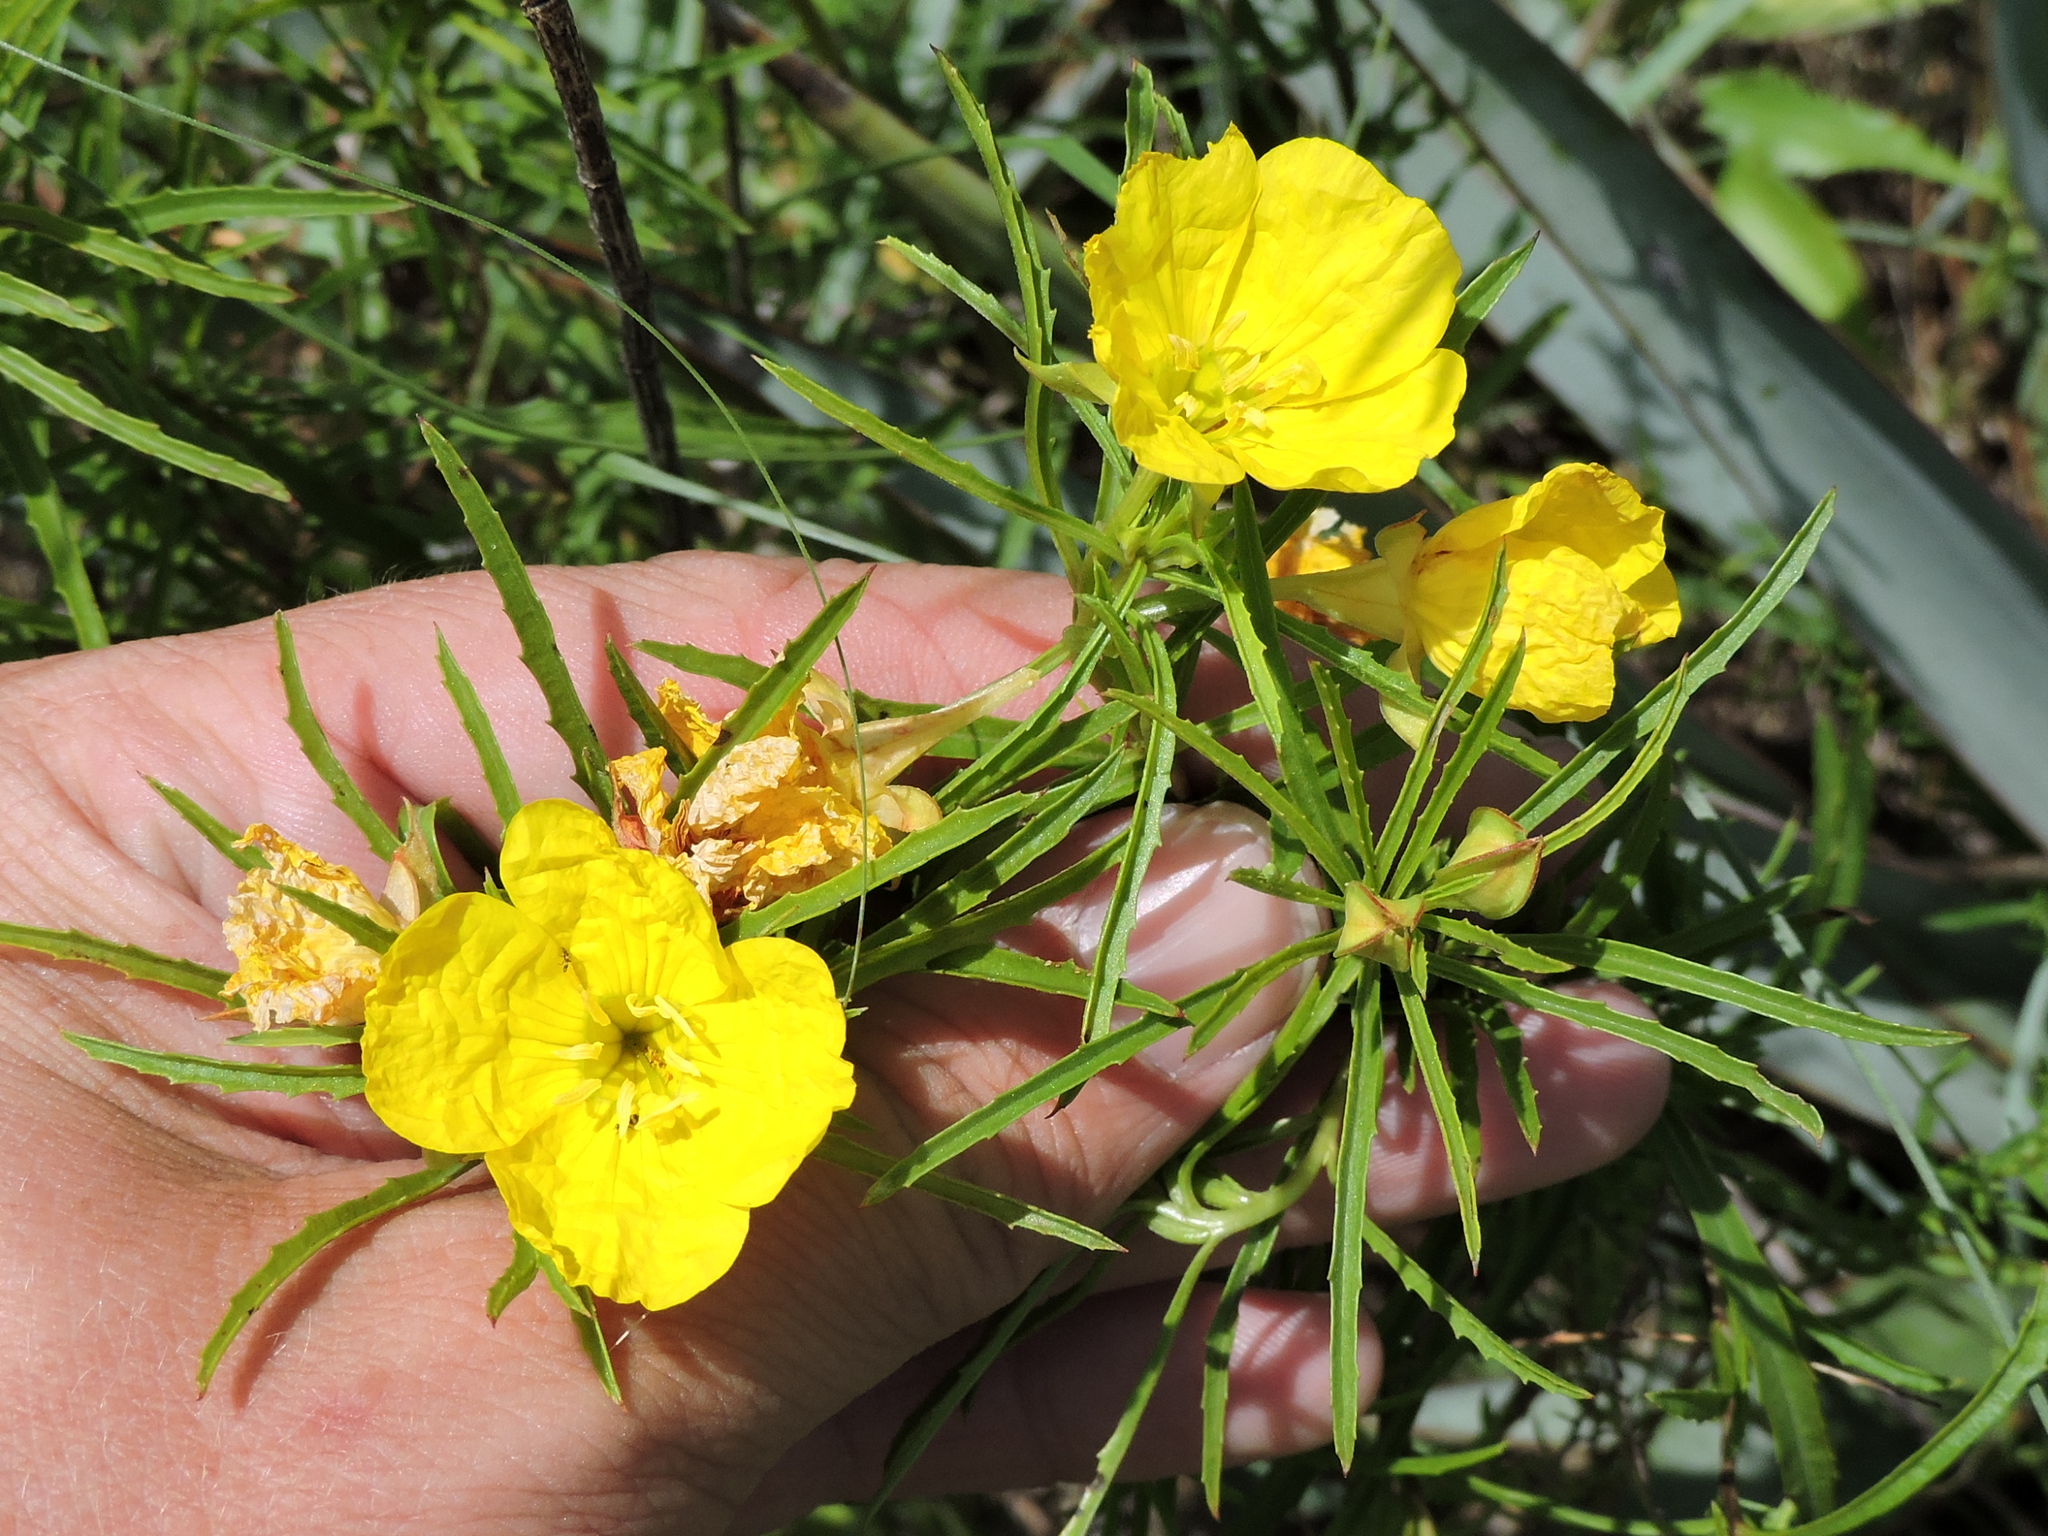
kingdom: Plantae
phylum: Tracheophyta
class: Magnoliopsida
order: Myrtales
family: Onagraceae
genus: Oenothera
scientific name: Oenothera
